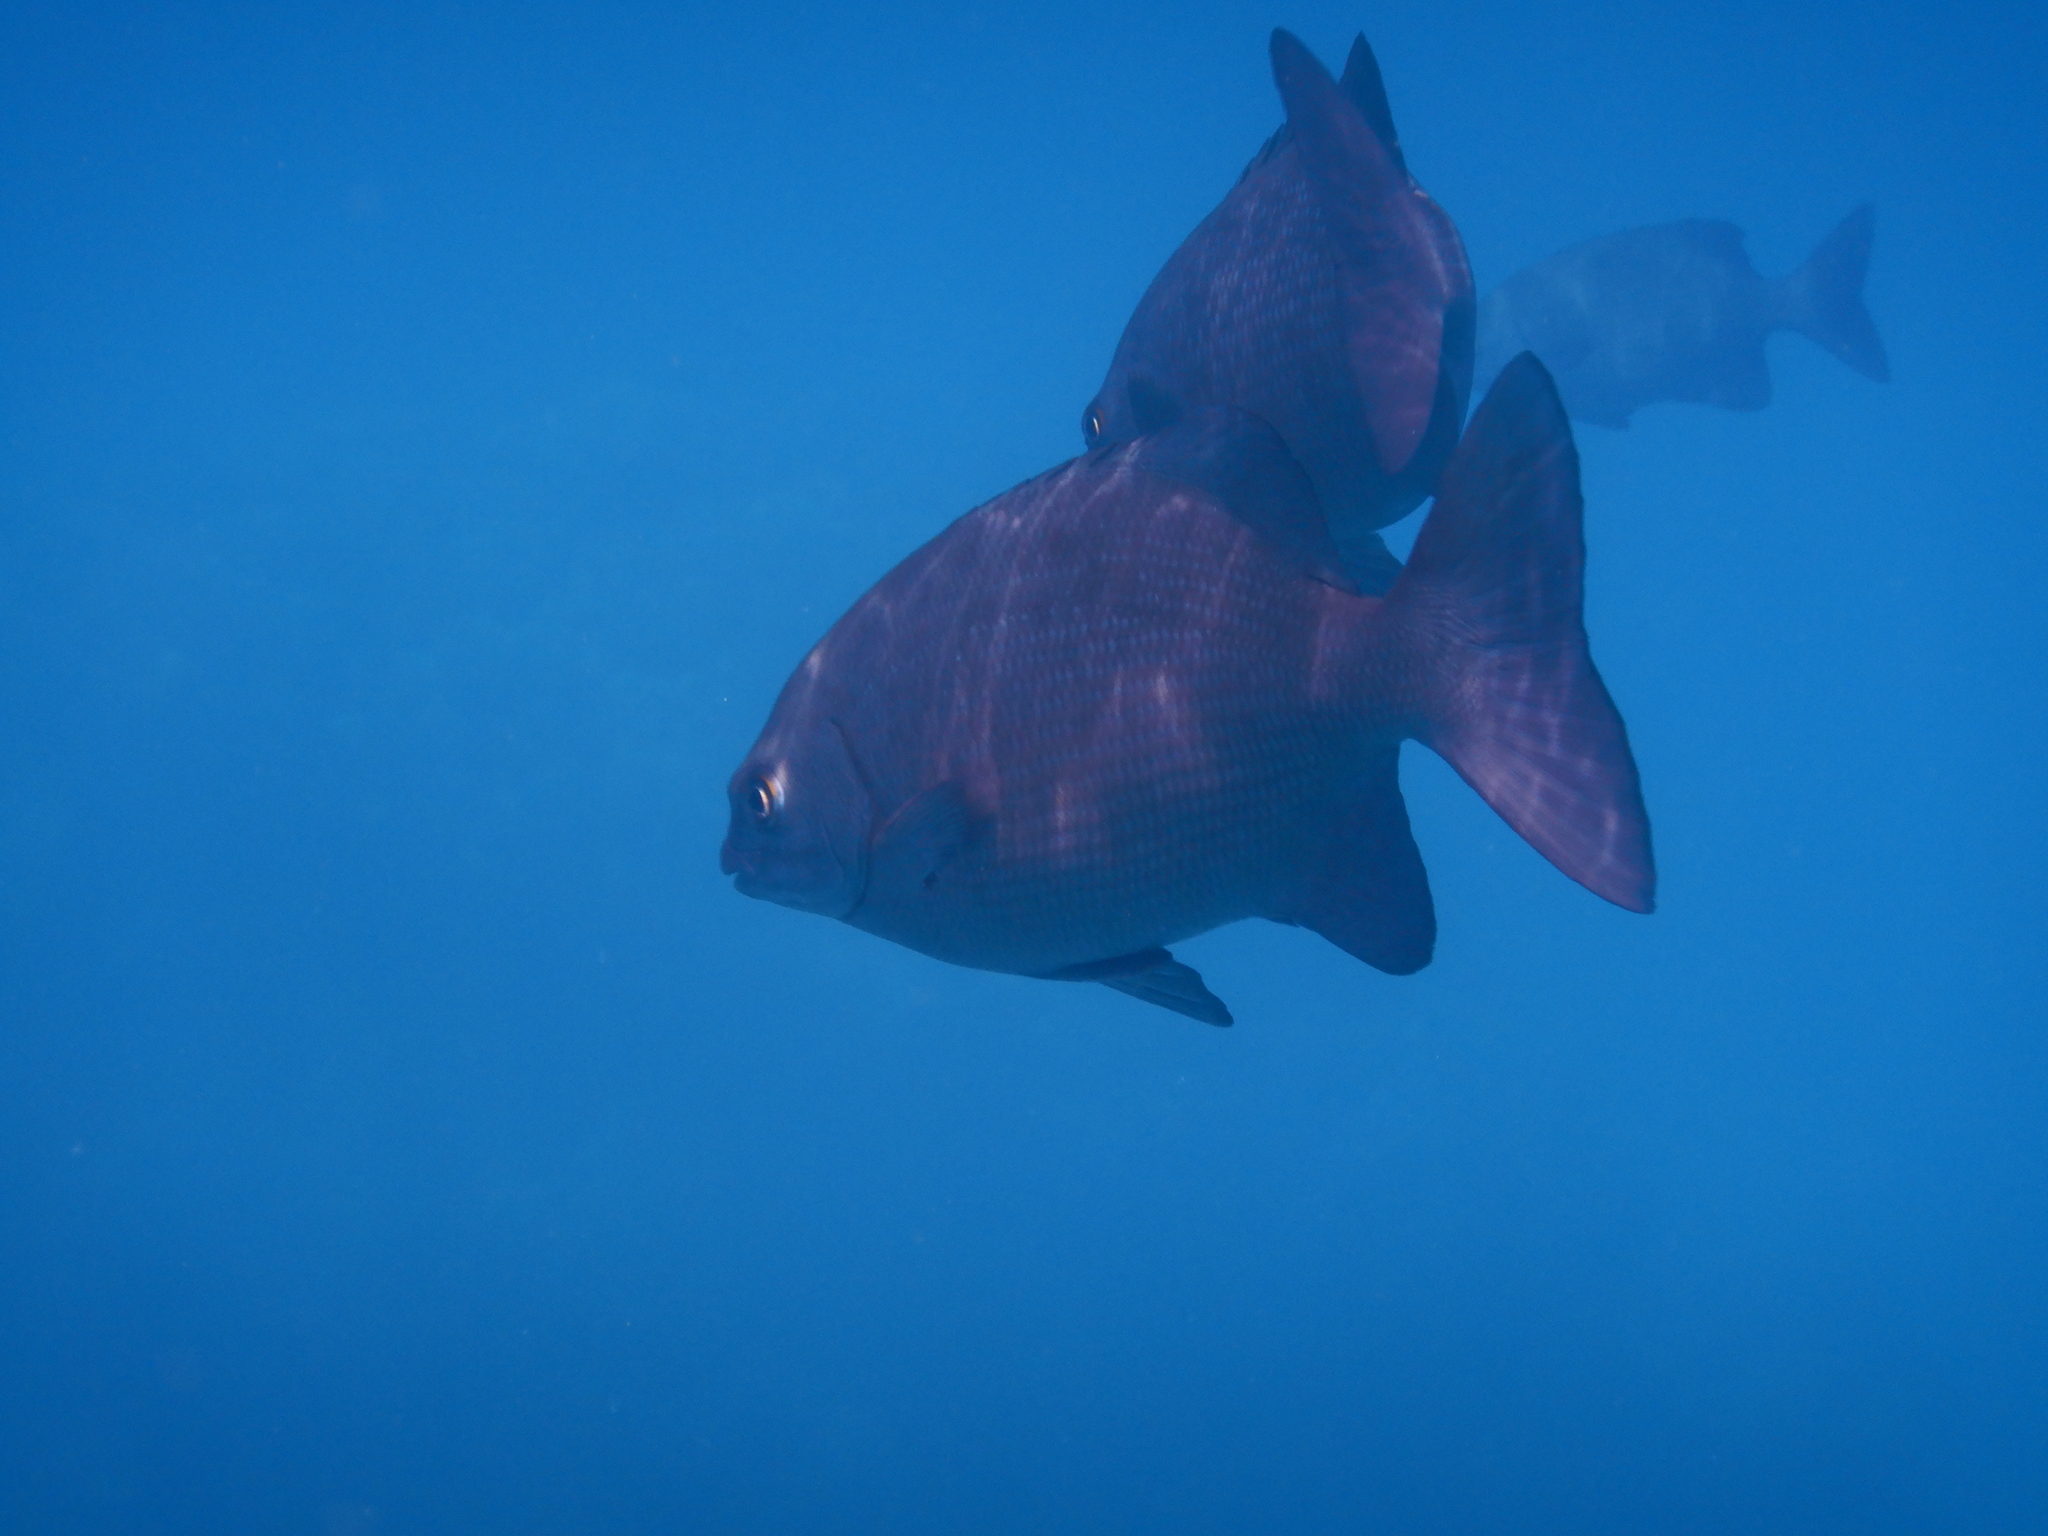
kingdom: Animalia
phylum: Chordata
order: Perciformes
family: Kyphosidae
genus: Kyphosus
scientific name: Kyphosus cinerascens
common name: Topsail drummer
